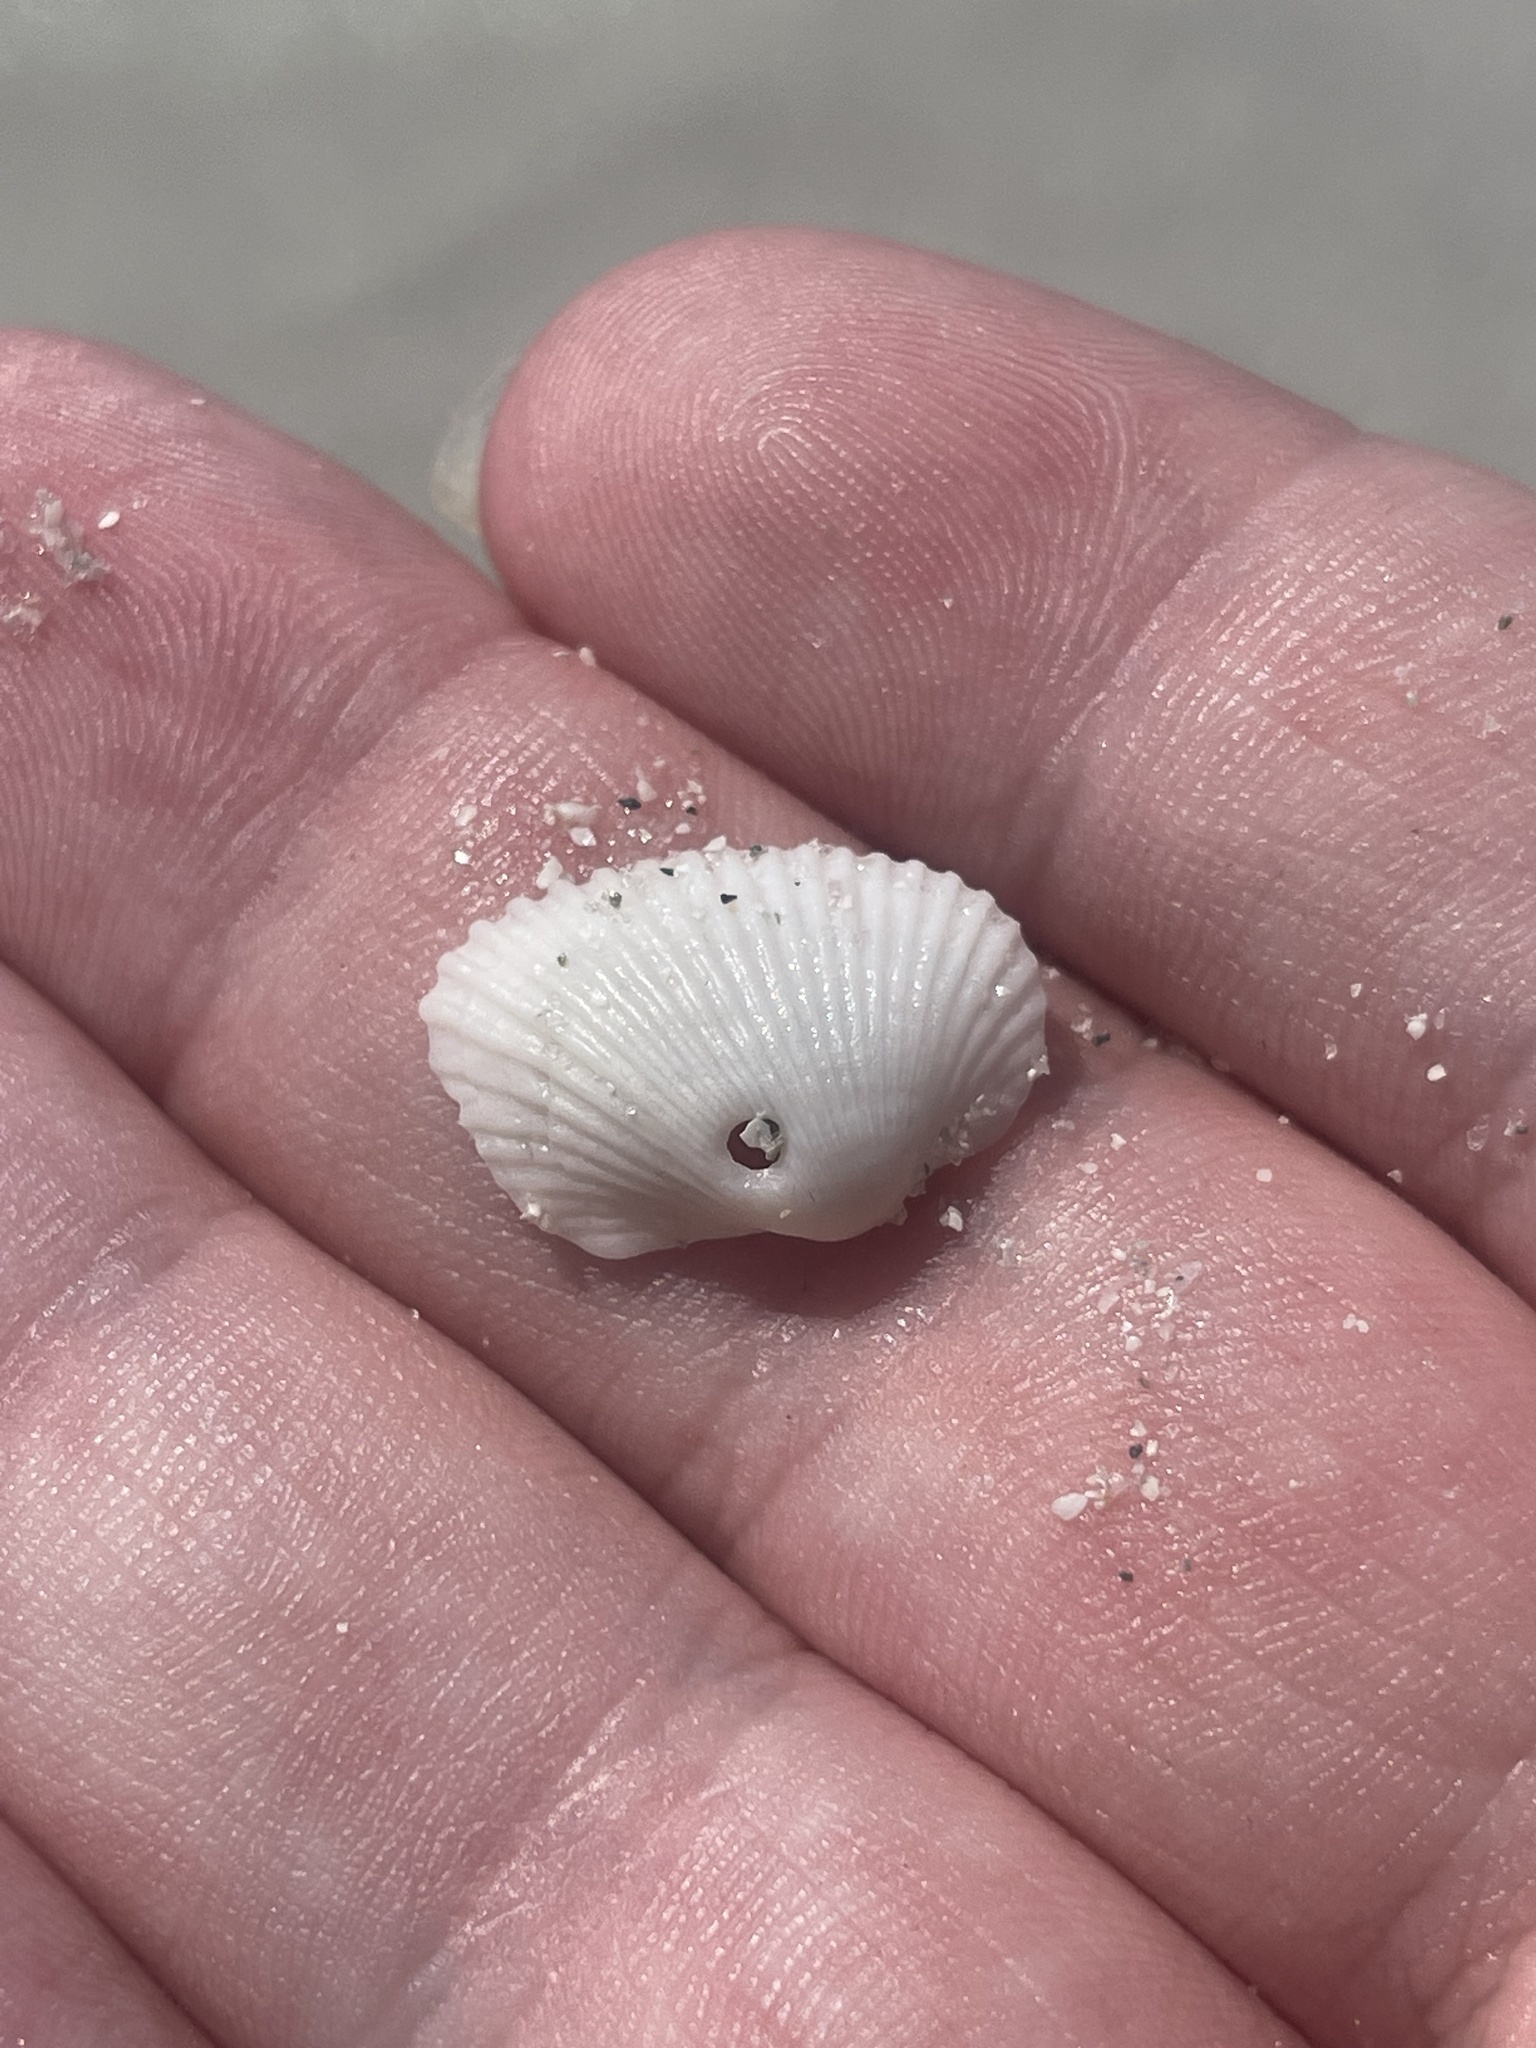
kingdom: Animalia
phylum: Mollusca
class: Bivalvia
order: Arcida
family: Arcidae
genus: Anadara
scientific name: Anadara transversa
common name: Transverse ark
